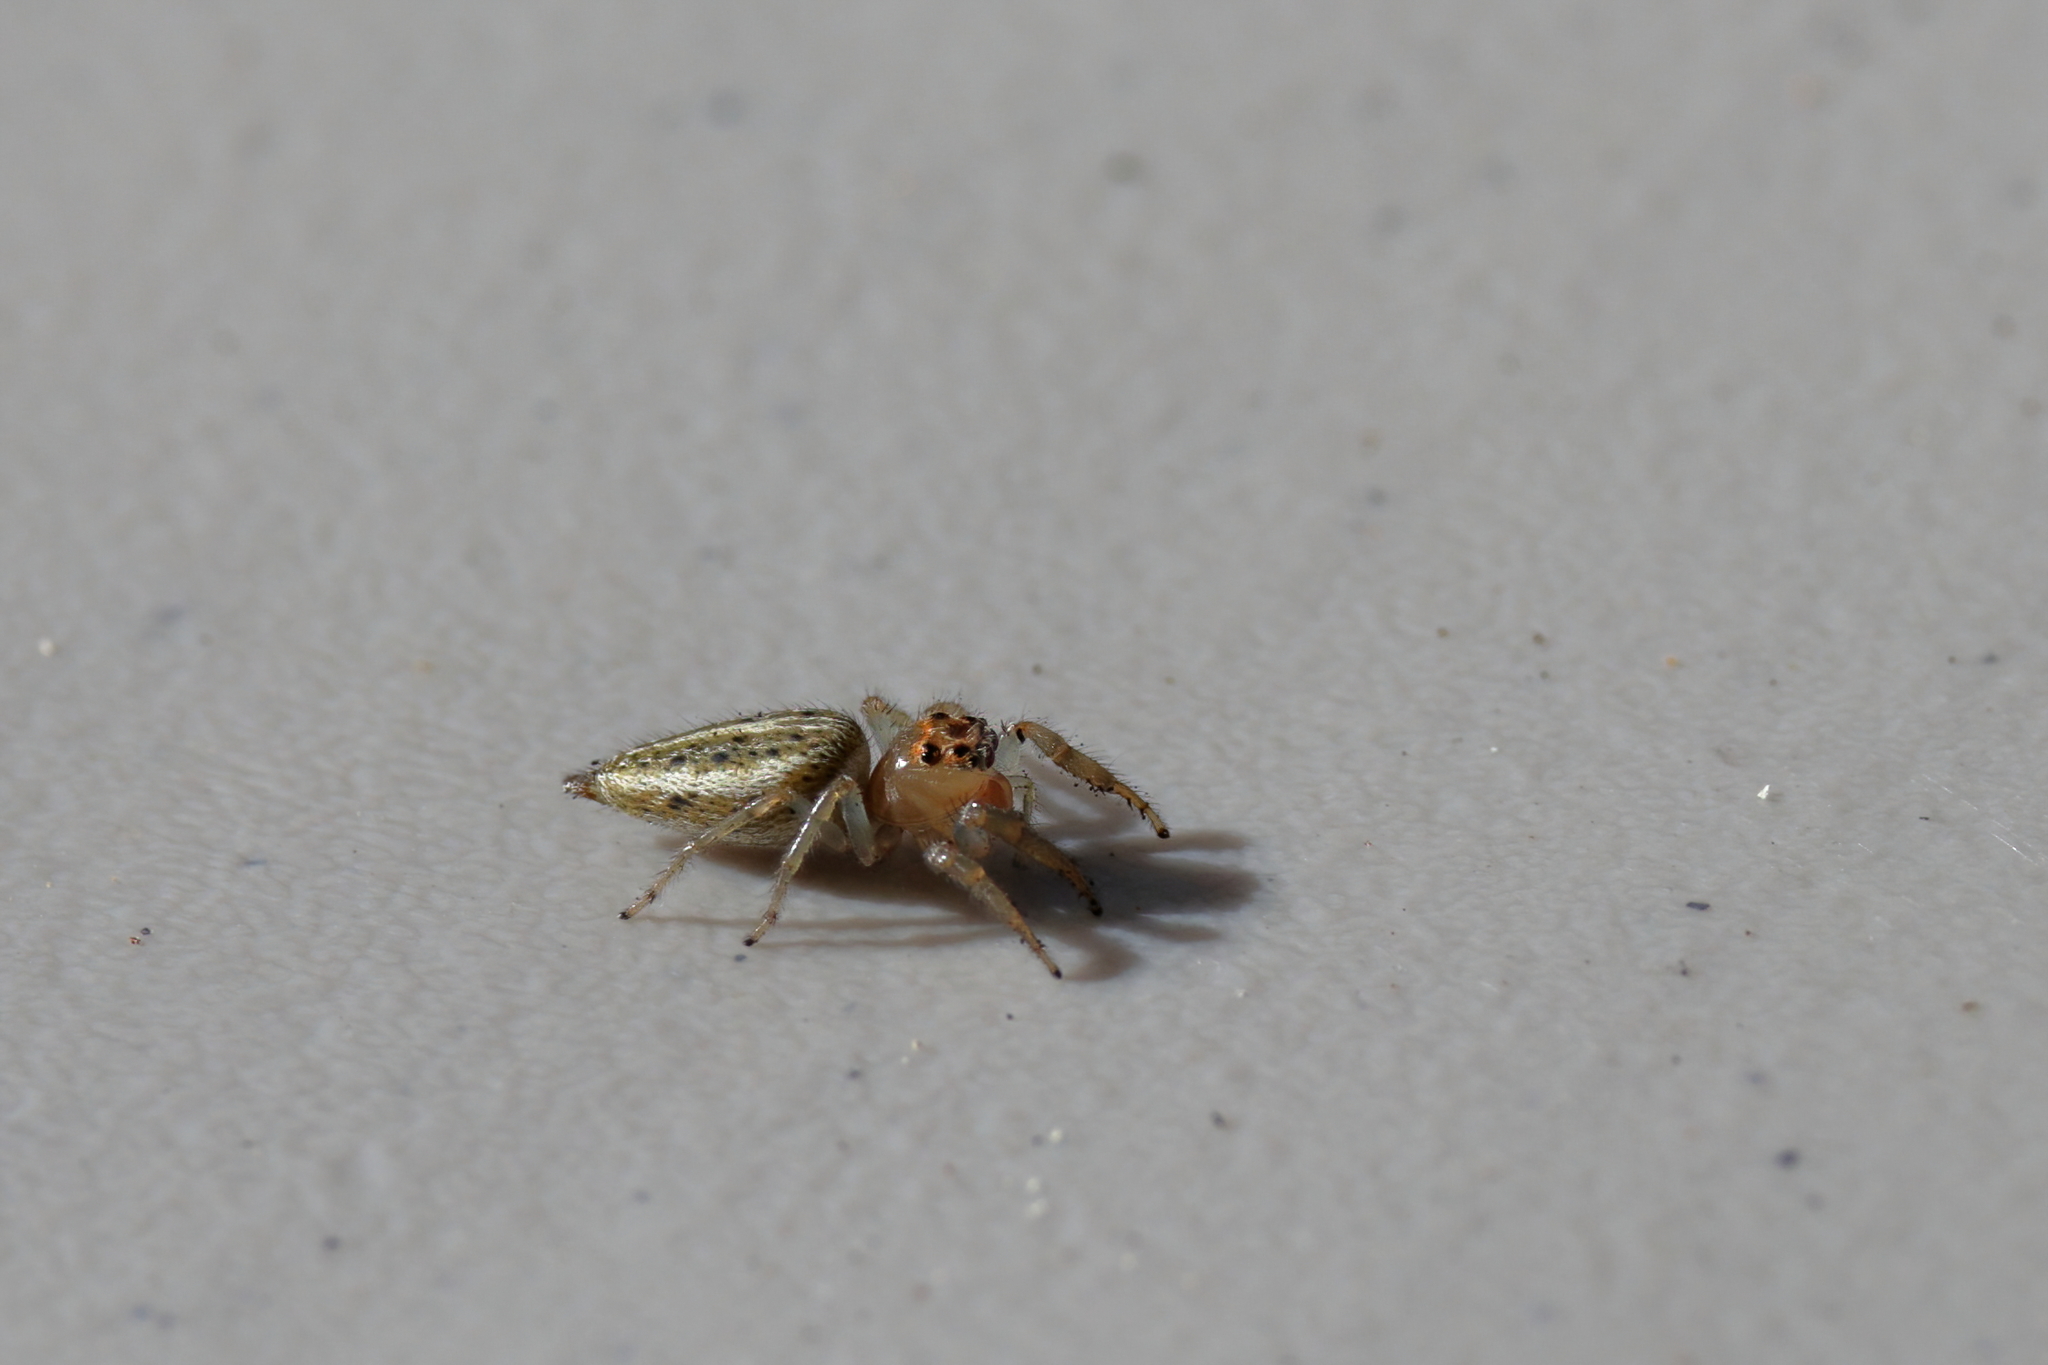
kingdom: Animalia
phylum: Arthropoda
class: Arachnida
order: Araneae
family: Salticidae
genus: Colonus
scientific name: Colonus sylvanus
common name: Jumping spiders
